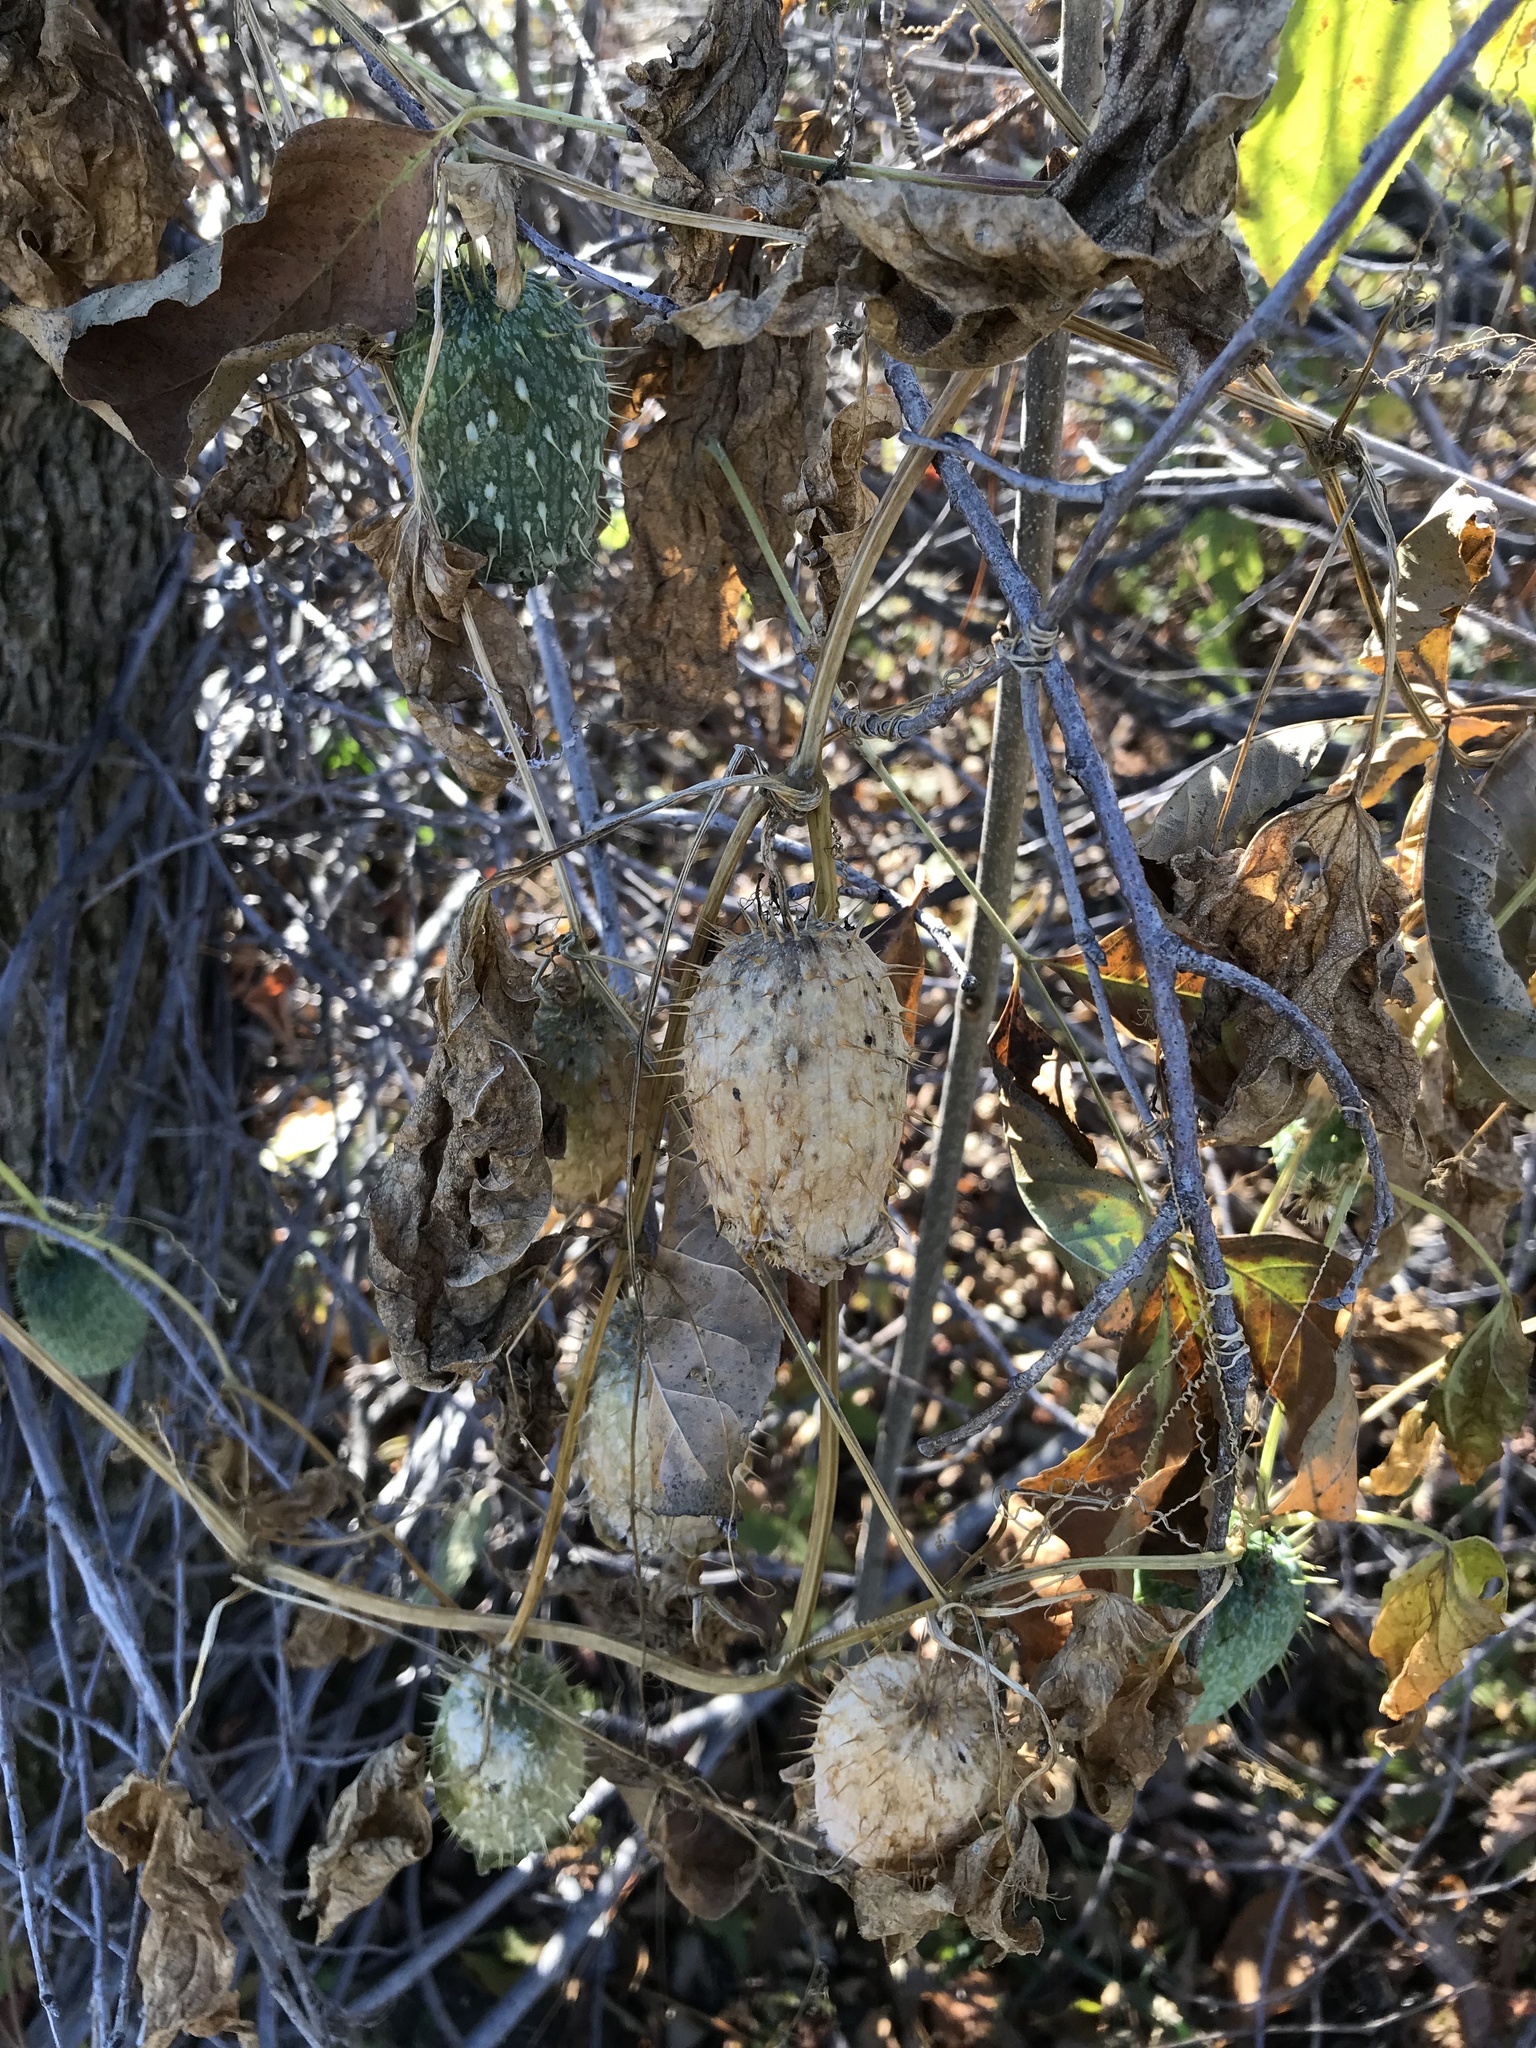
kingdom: Plantae
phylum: Tracheophyta
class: Magnoliopsida
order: Cucurbitales
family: Cucurbitaceae
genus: Echinocystis
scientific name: Echinocystis lobata
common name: Wild cucumber
